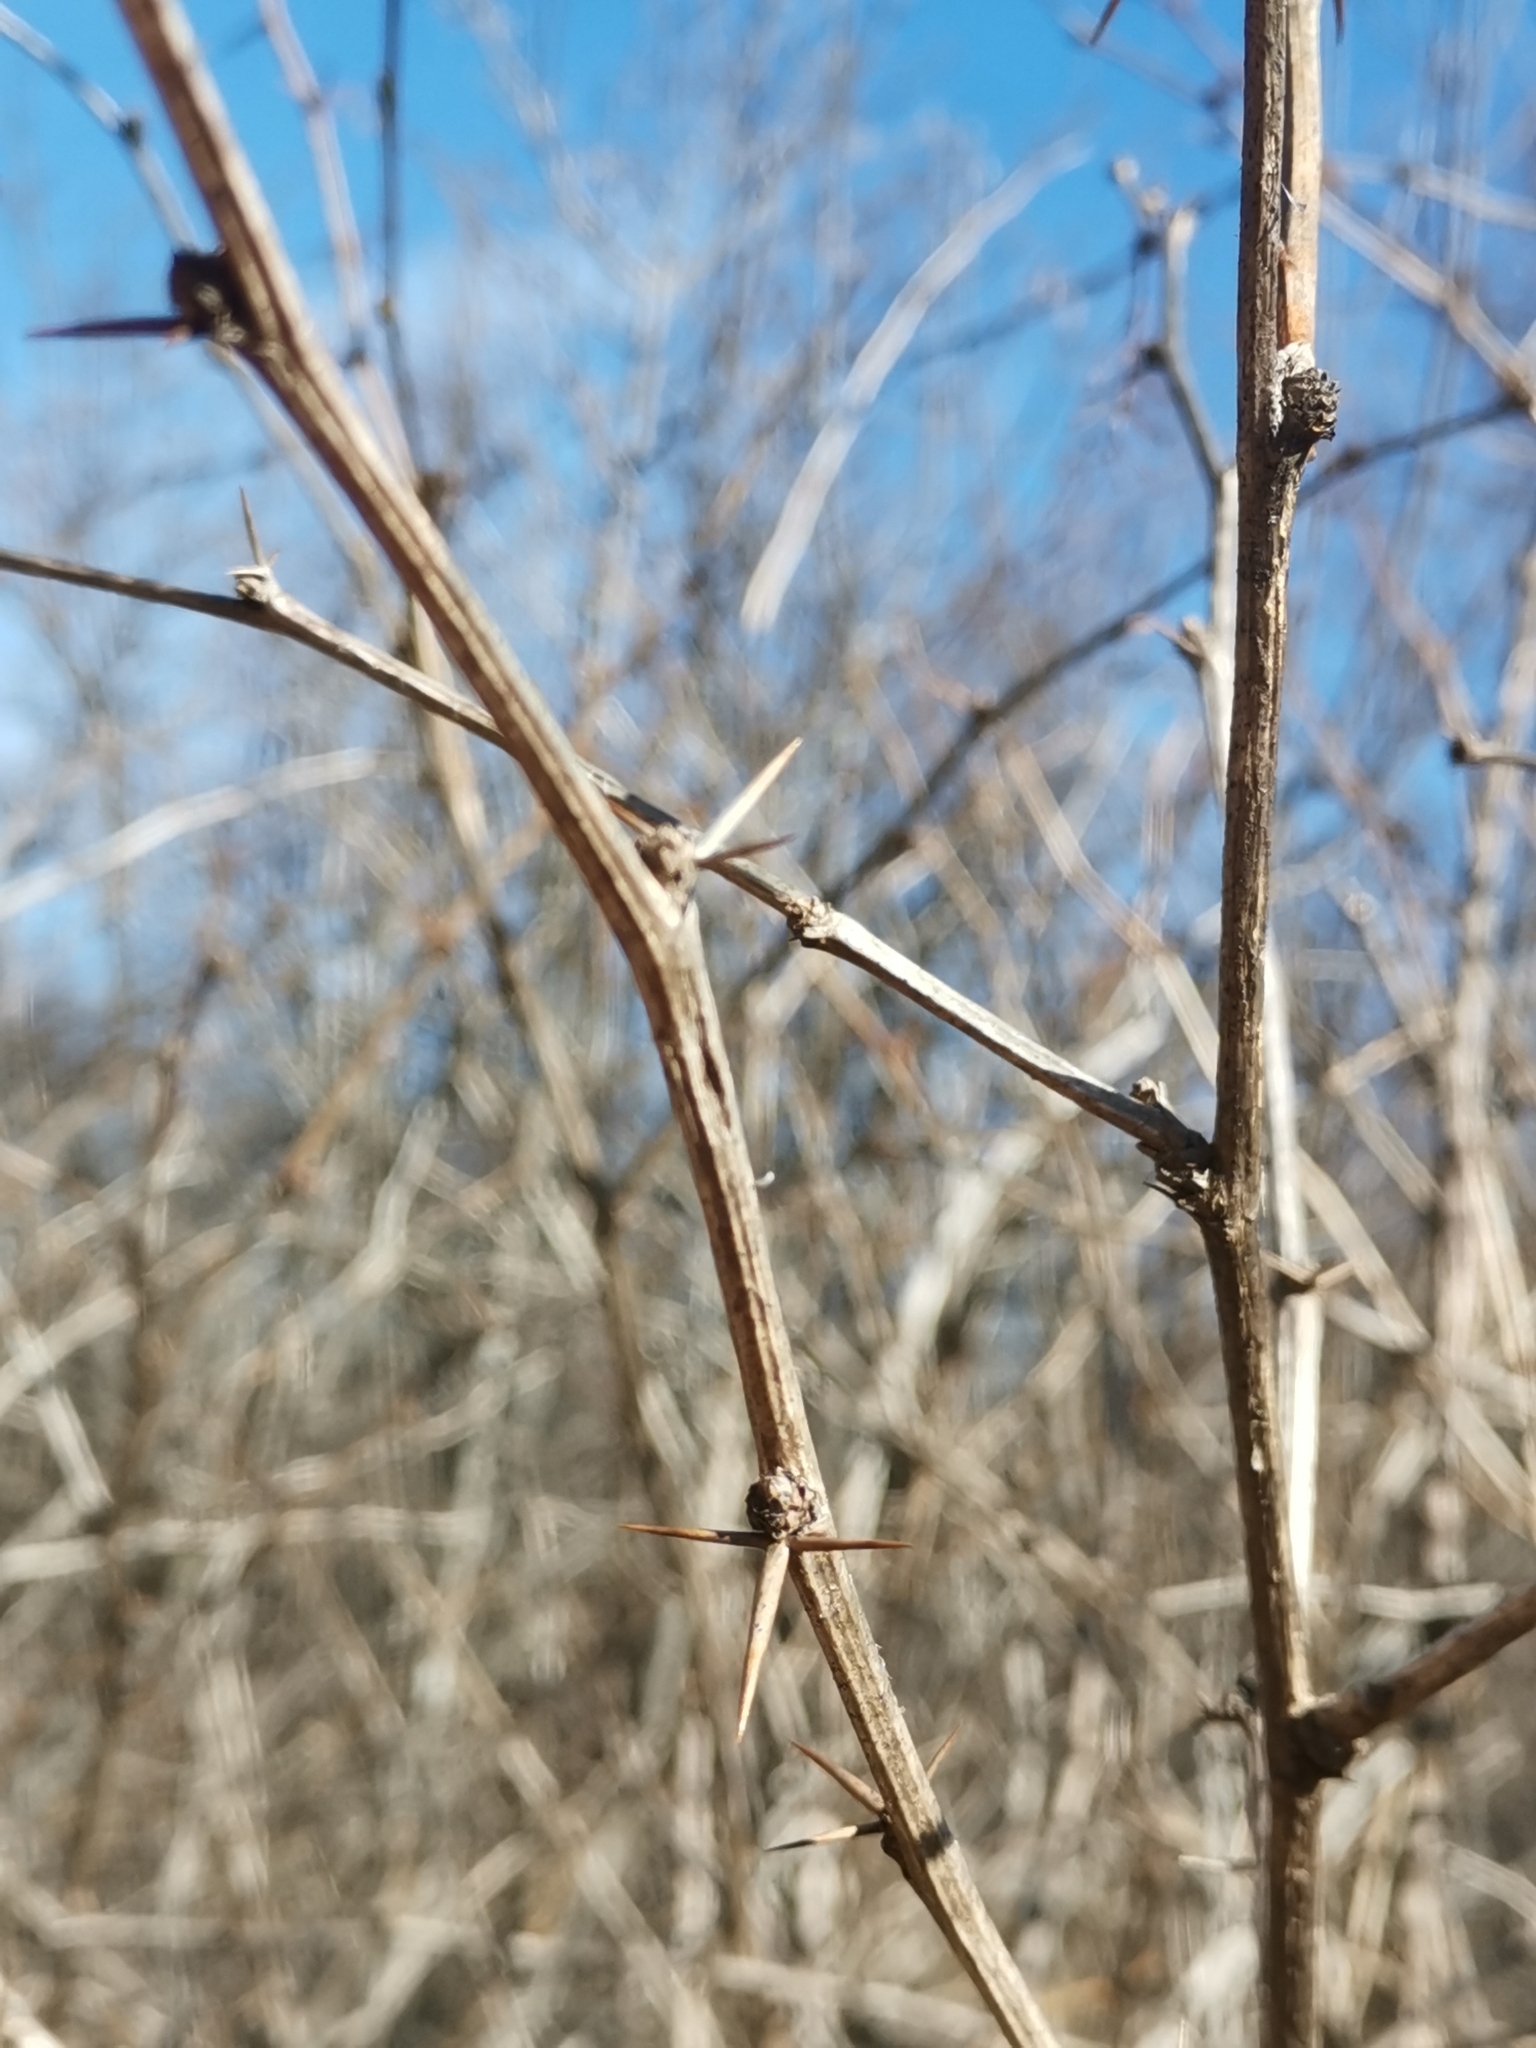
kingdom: Plantae
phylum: Tracheophyta
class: Magnoliopsida
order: Ranunculales
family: Berberidaceae
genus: Berberis
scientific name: Berberis vulgaris
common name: Barberry
